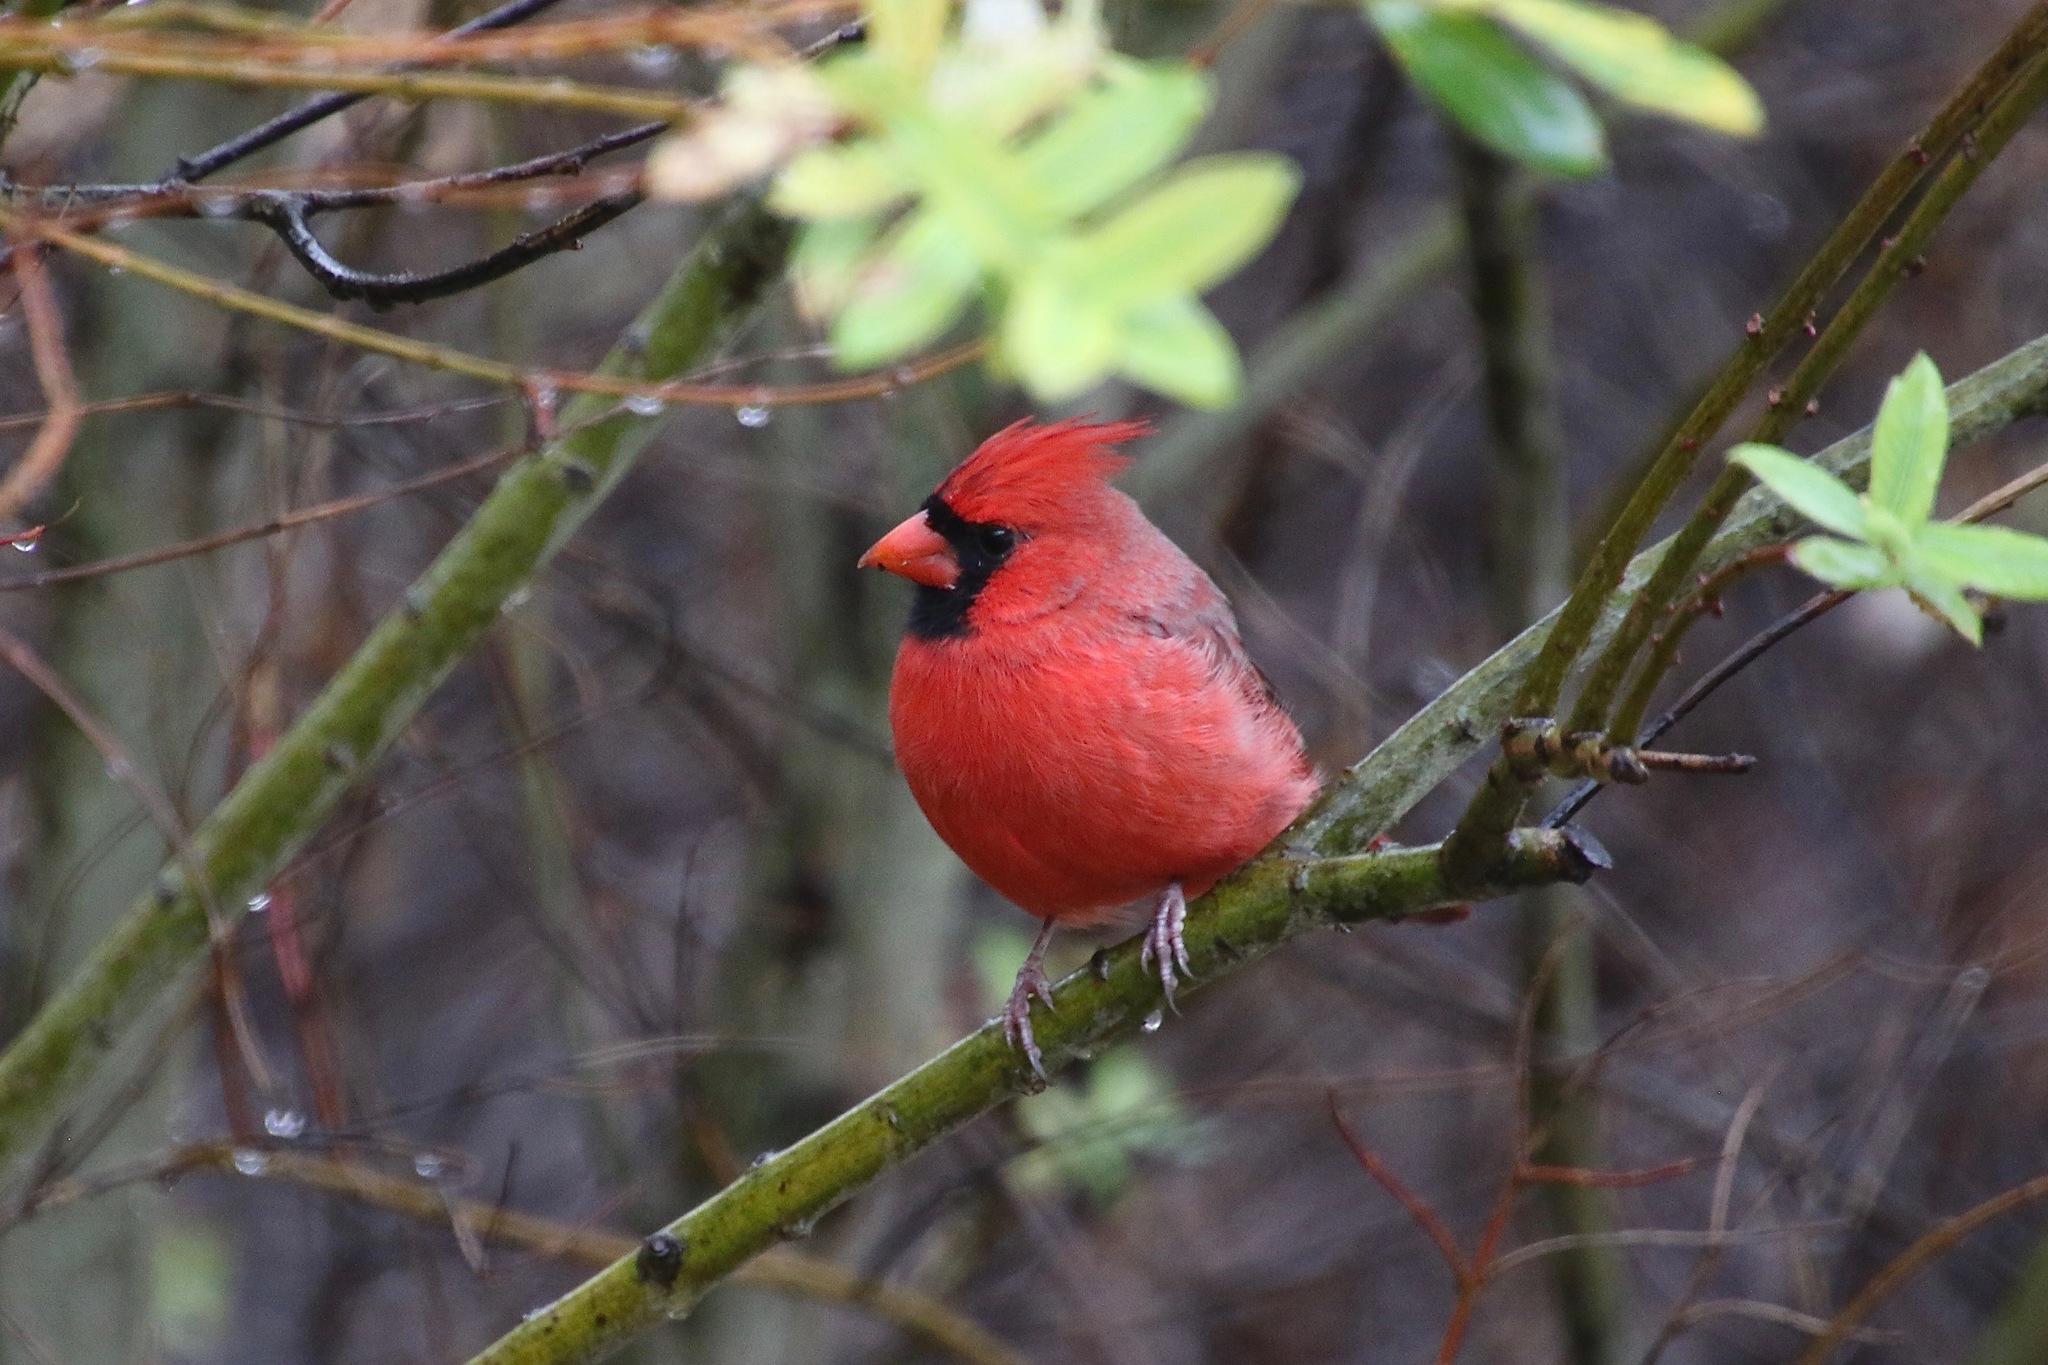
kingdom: Animalia
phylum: Chordata
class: Aves
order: Passeriformes
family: Cardinalidae
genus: Cardinalis
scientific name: Cardinalis cardinalis
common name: Northern cardinal
